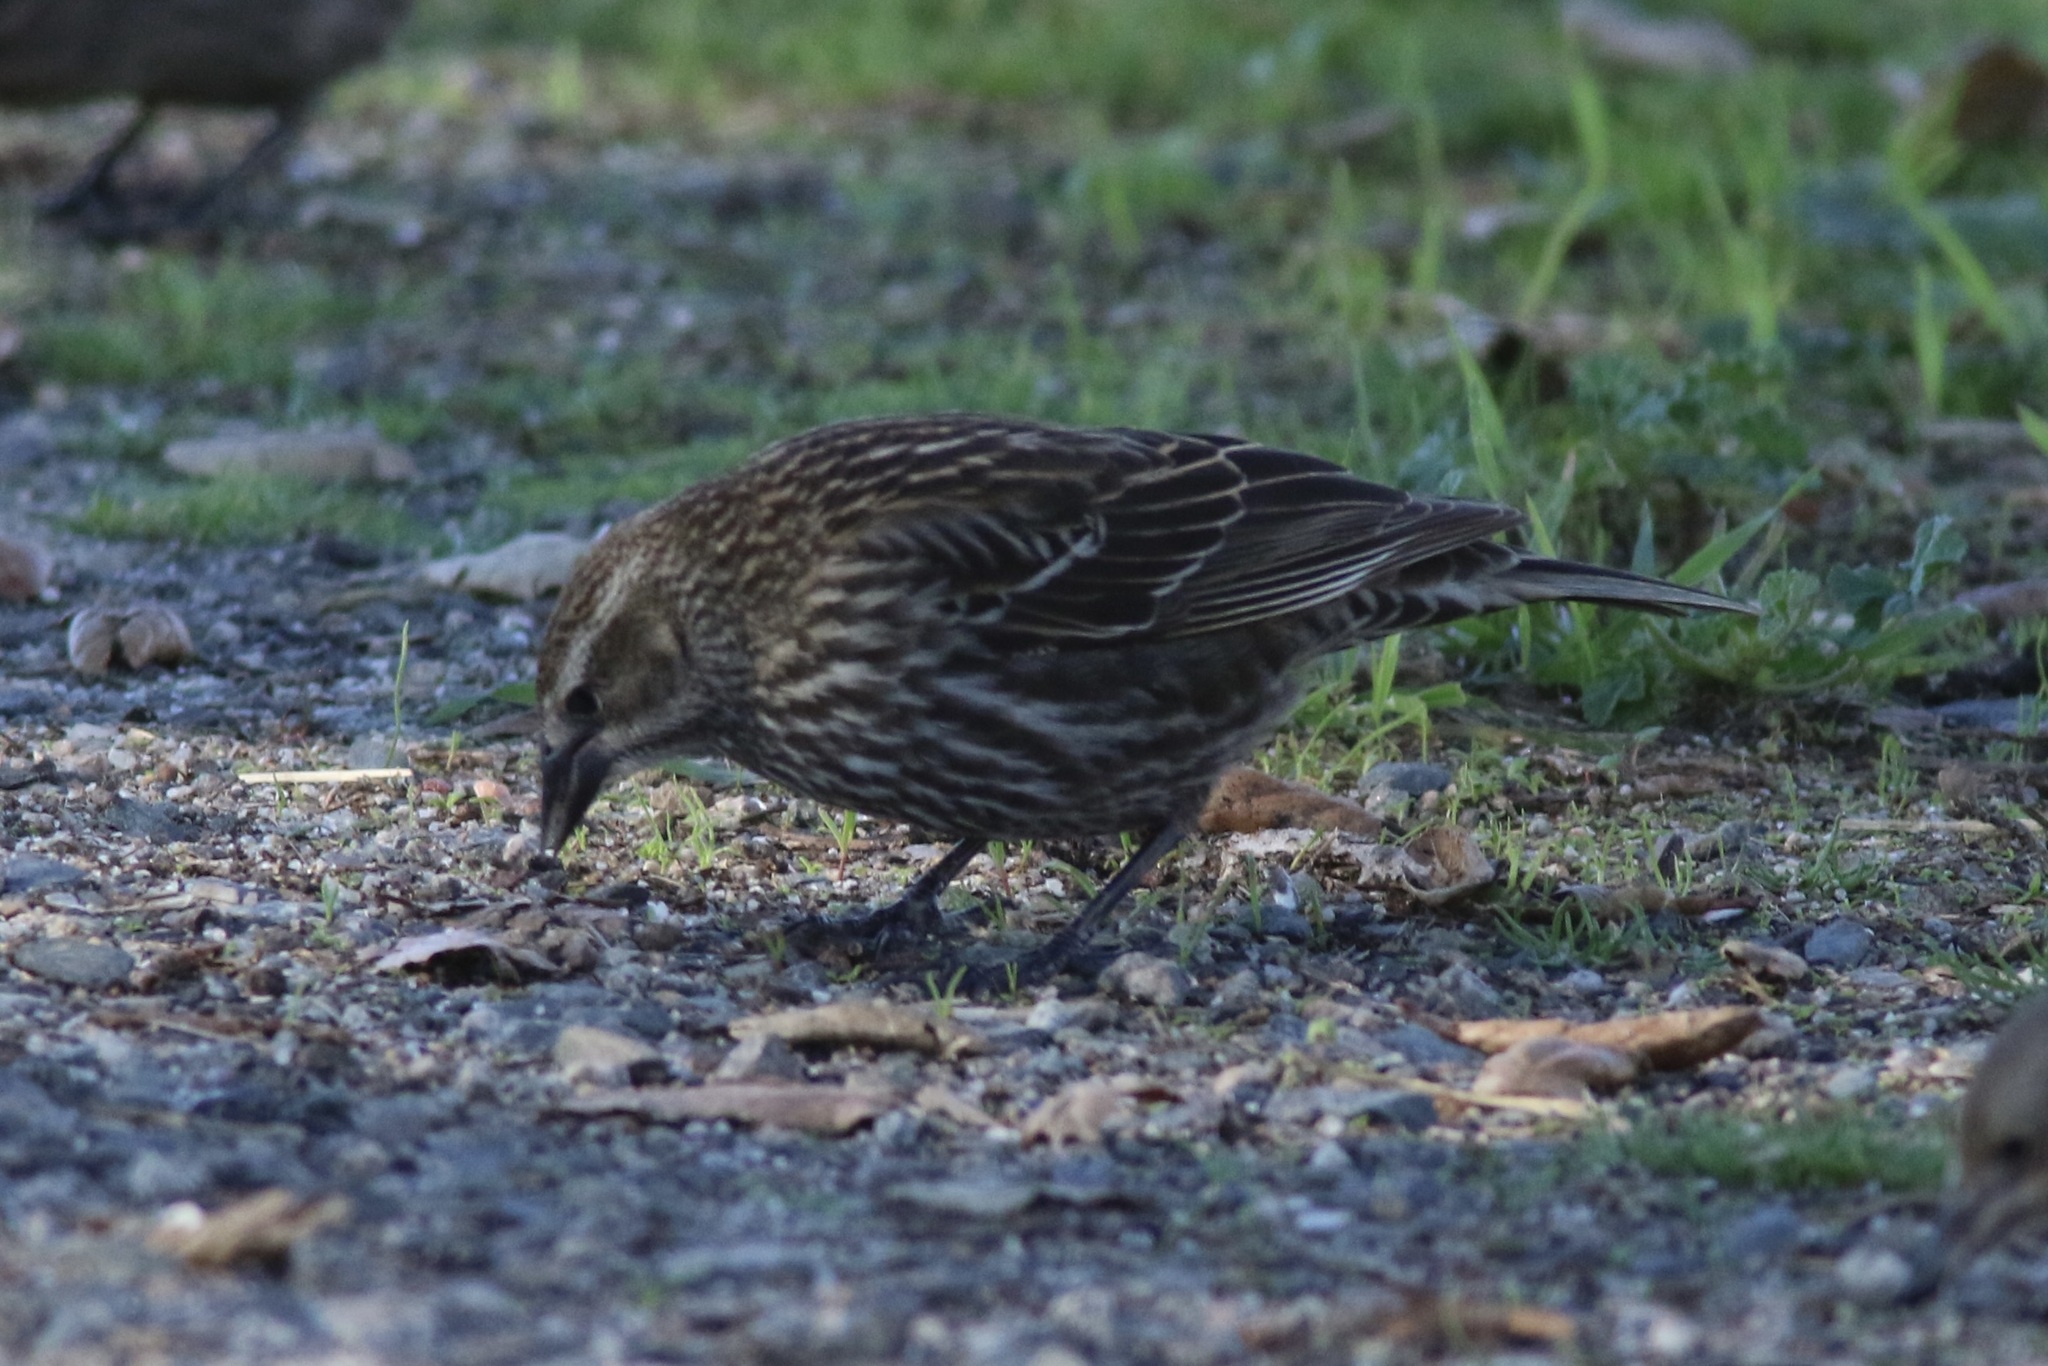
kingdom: Animalia
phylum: Chordata
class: Aves
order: Passeriformes
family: Icteridae
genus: Agelaius
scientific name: Agelaius phoeniceus
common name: Red-winged blackbird
